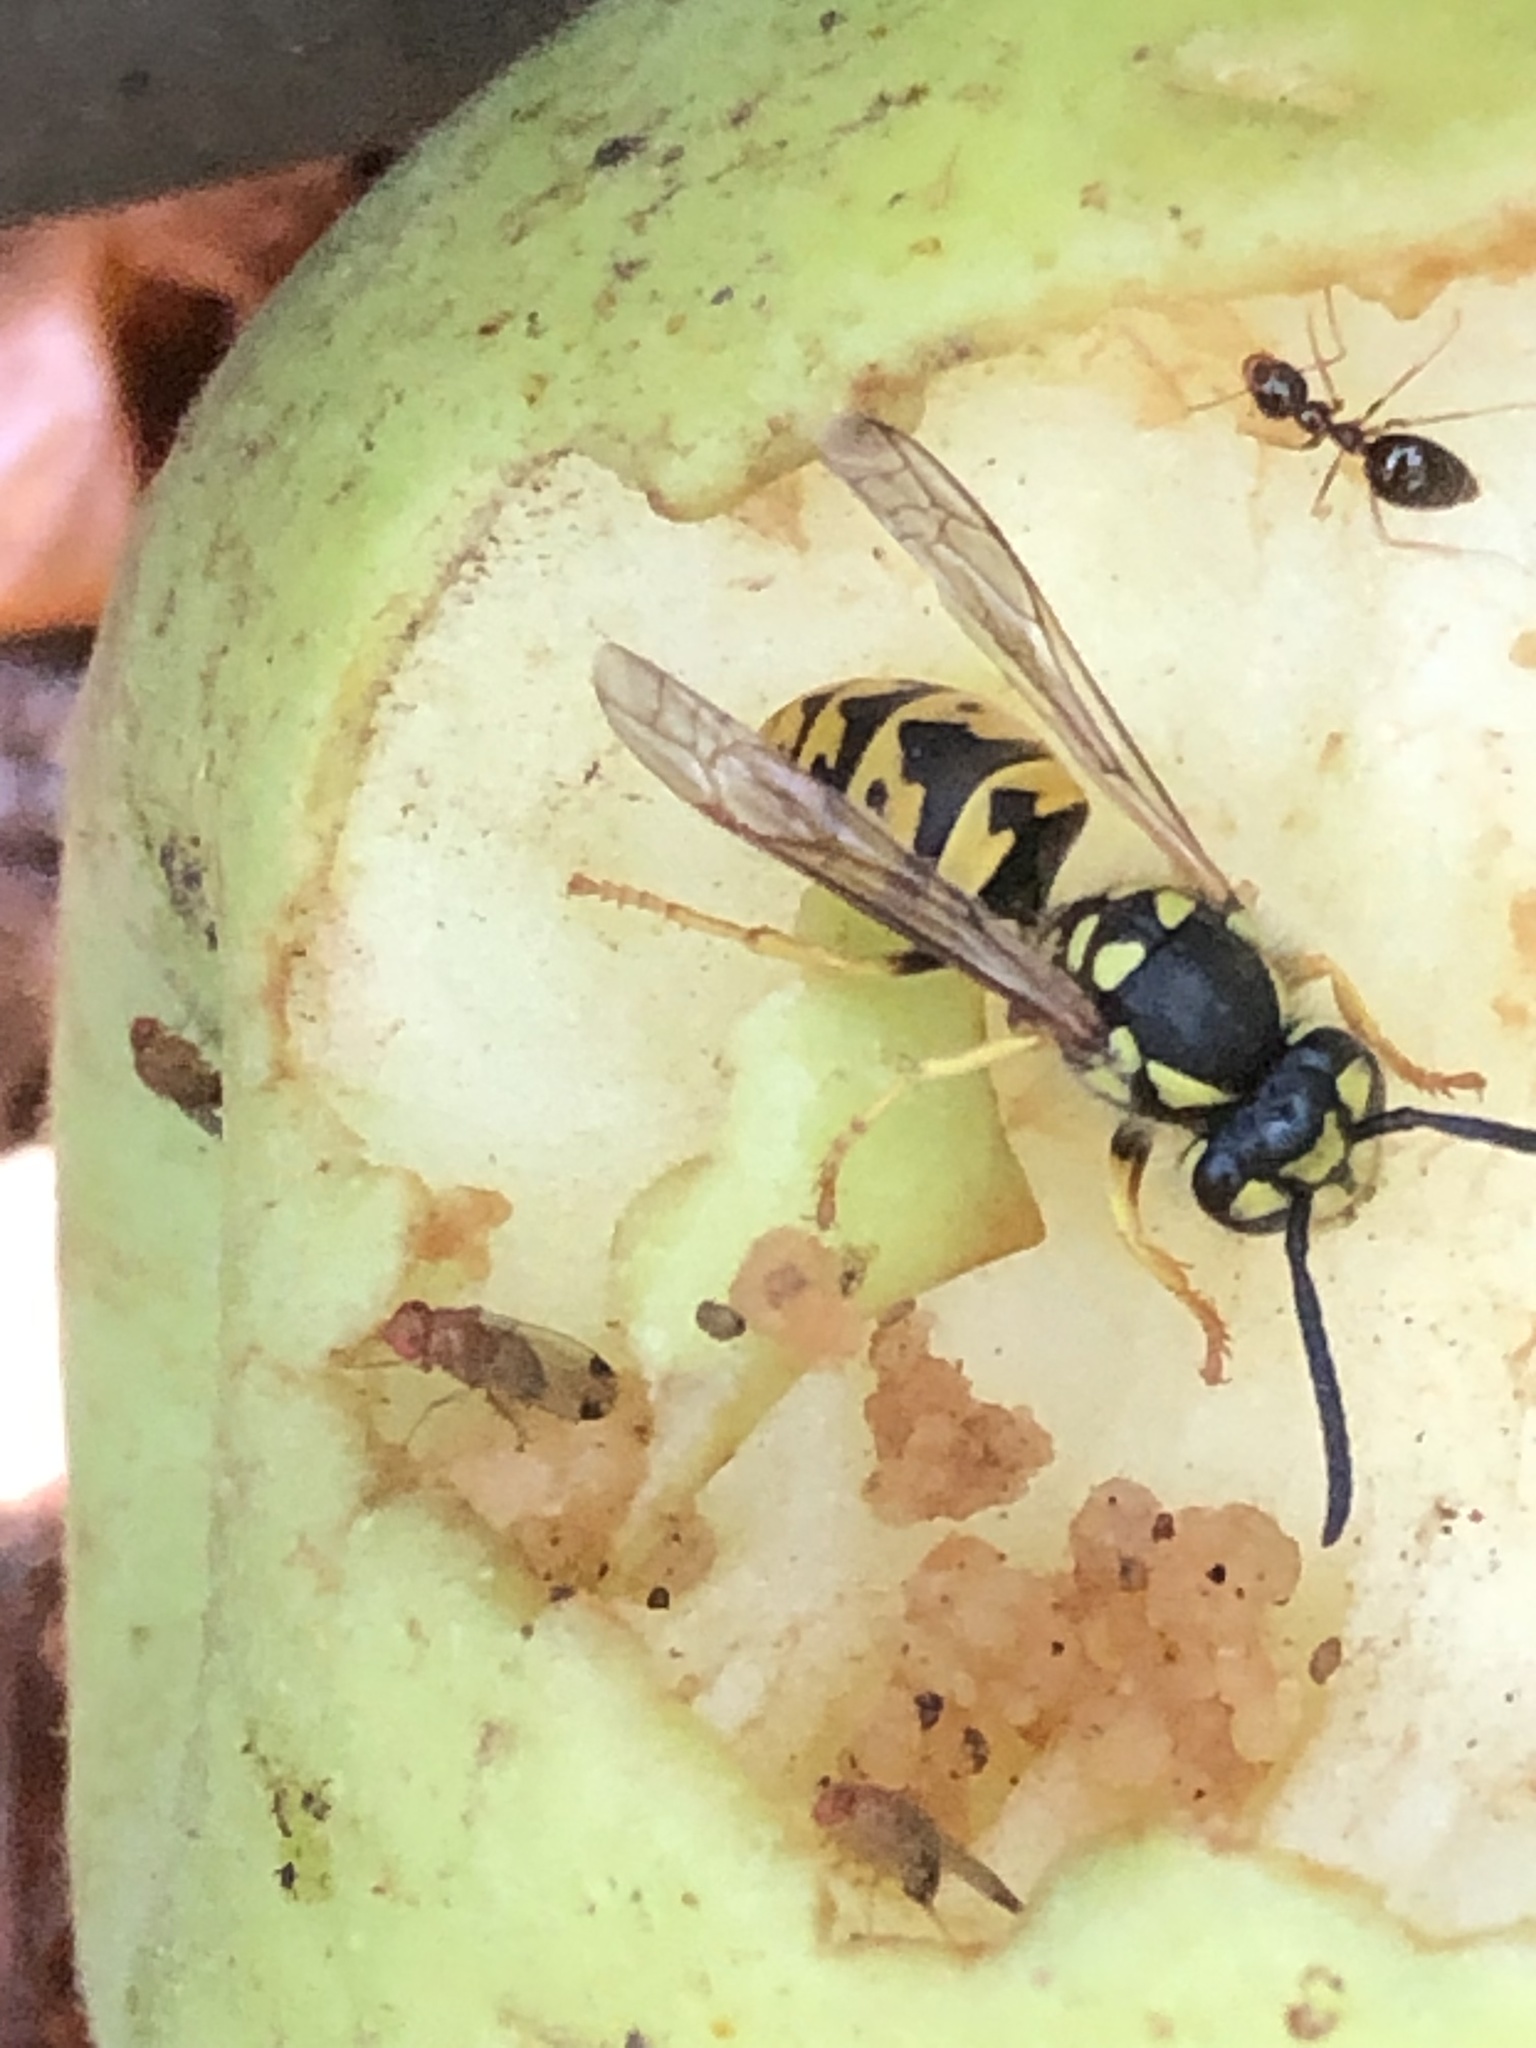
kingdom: Animalia
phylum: Arthropoda
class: Insecta
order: Hymenoptera
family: Vespidae
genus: Vespula
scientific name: Vespula germanica
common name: German wasp
